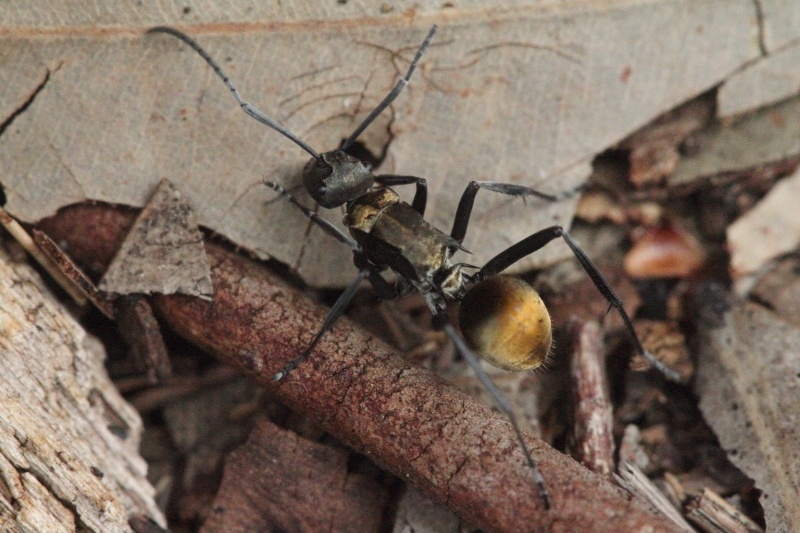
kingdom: Animalia
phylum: Arthropoda
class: Insecta
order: Hymenoptera
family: Formicidae
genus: Polyrhachis
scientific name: Polyrhachis ammon
